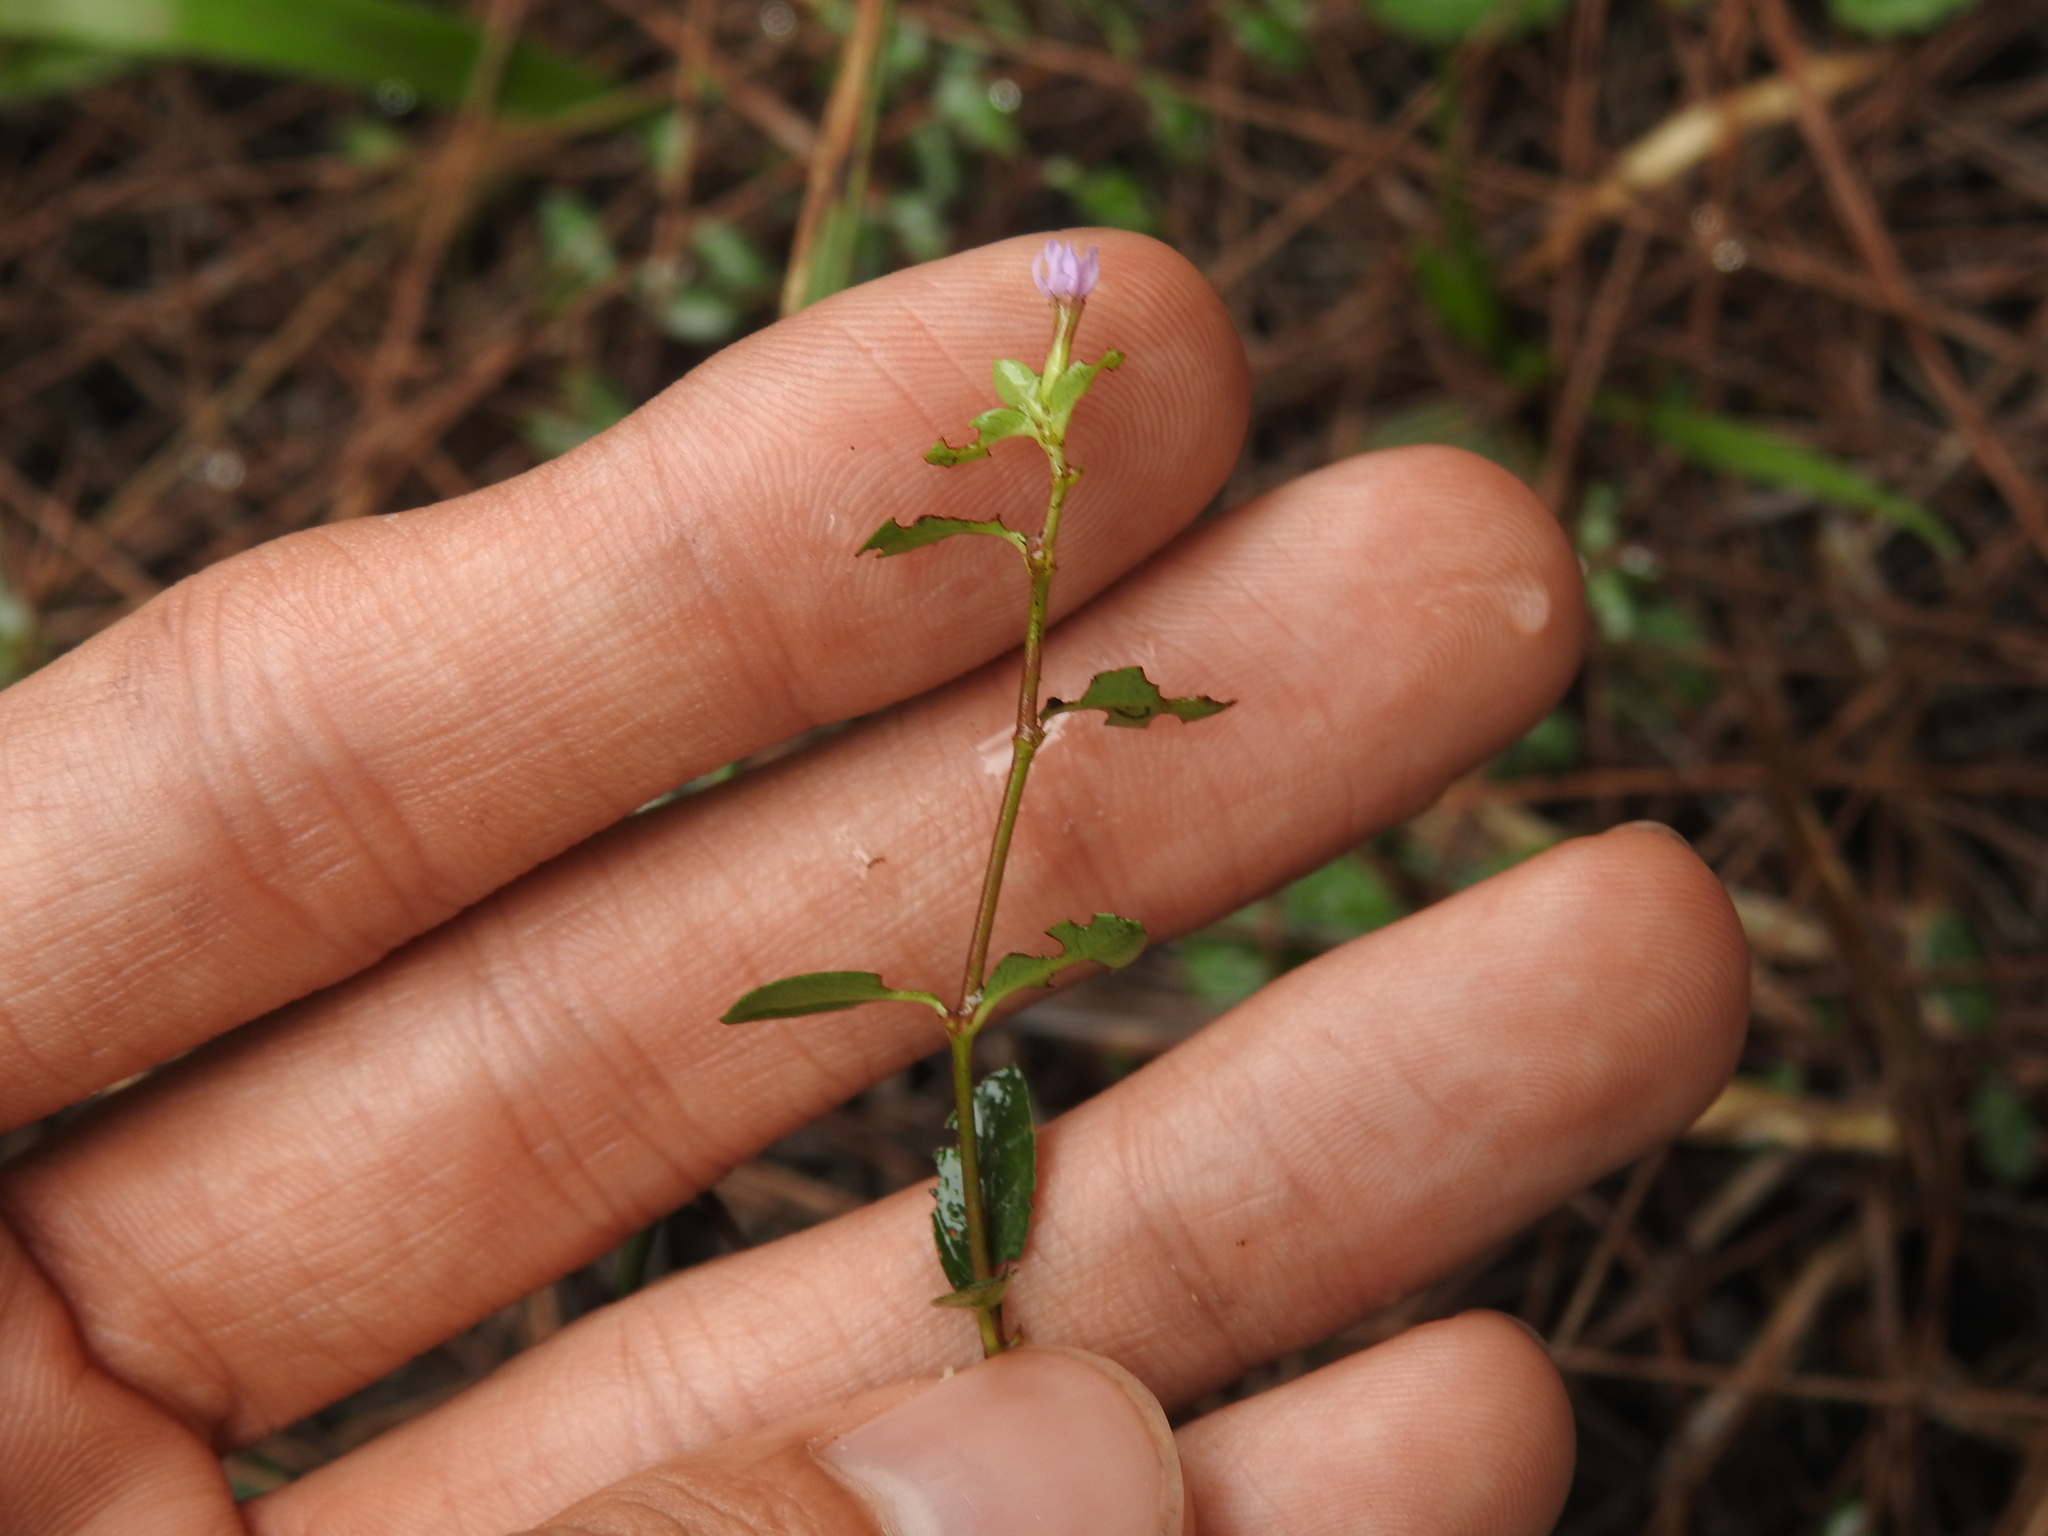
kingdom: Plantae
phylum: Tracheophyta
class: Magnoliopsida
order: Myrtales
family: Lythraceae
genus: Cuphea
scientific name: Cuphea strigulosa
